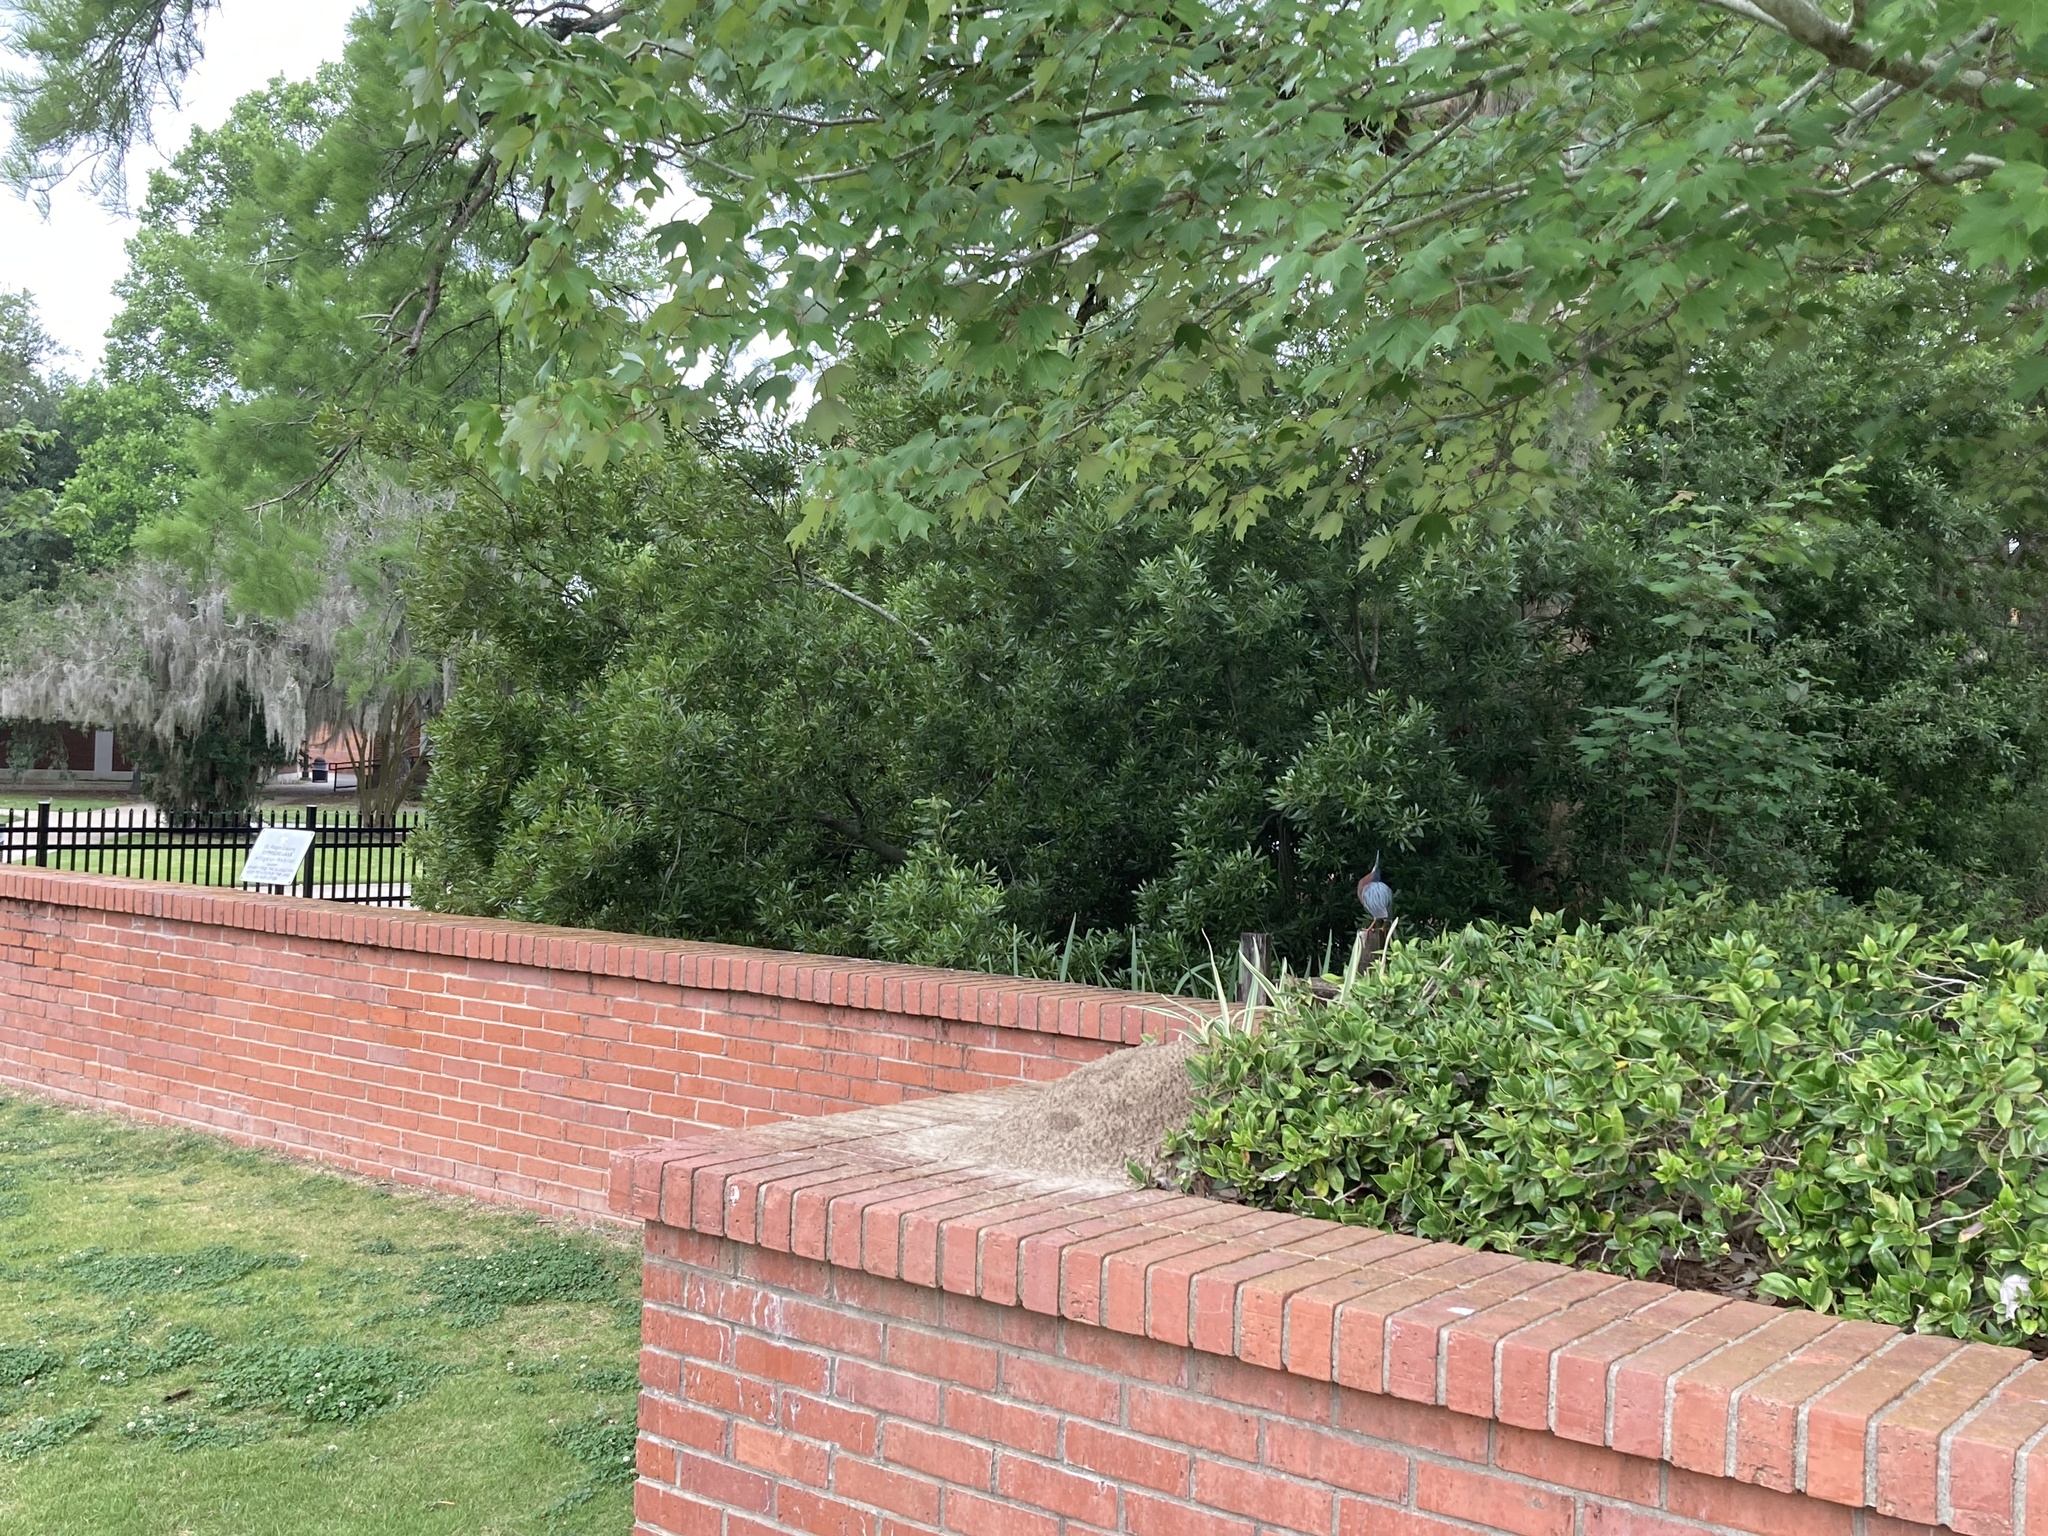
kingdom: Animalia
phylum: Chordata
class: Aves
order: Pelecaniformes
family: Ardeidae
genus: Butorides
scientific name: Butorides virescens
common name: Green heron
